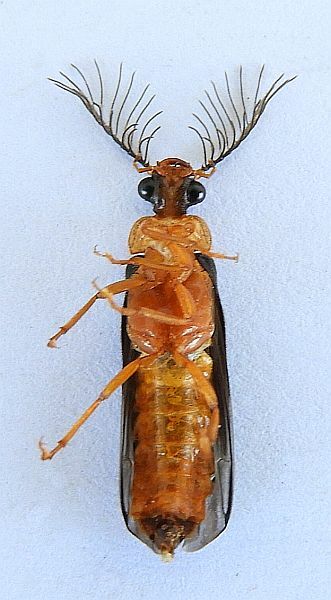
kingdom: Animalia
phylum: Arthropoda
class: Insecta
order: Coleoptera
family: Phengodidae
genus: Zarhipis
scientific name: Zarhipis integripennis
